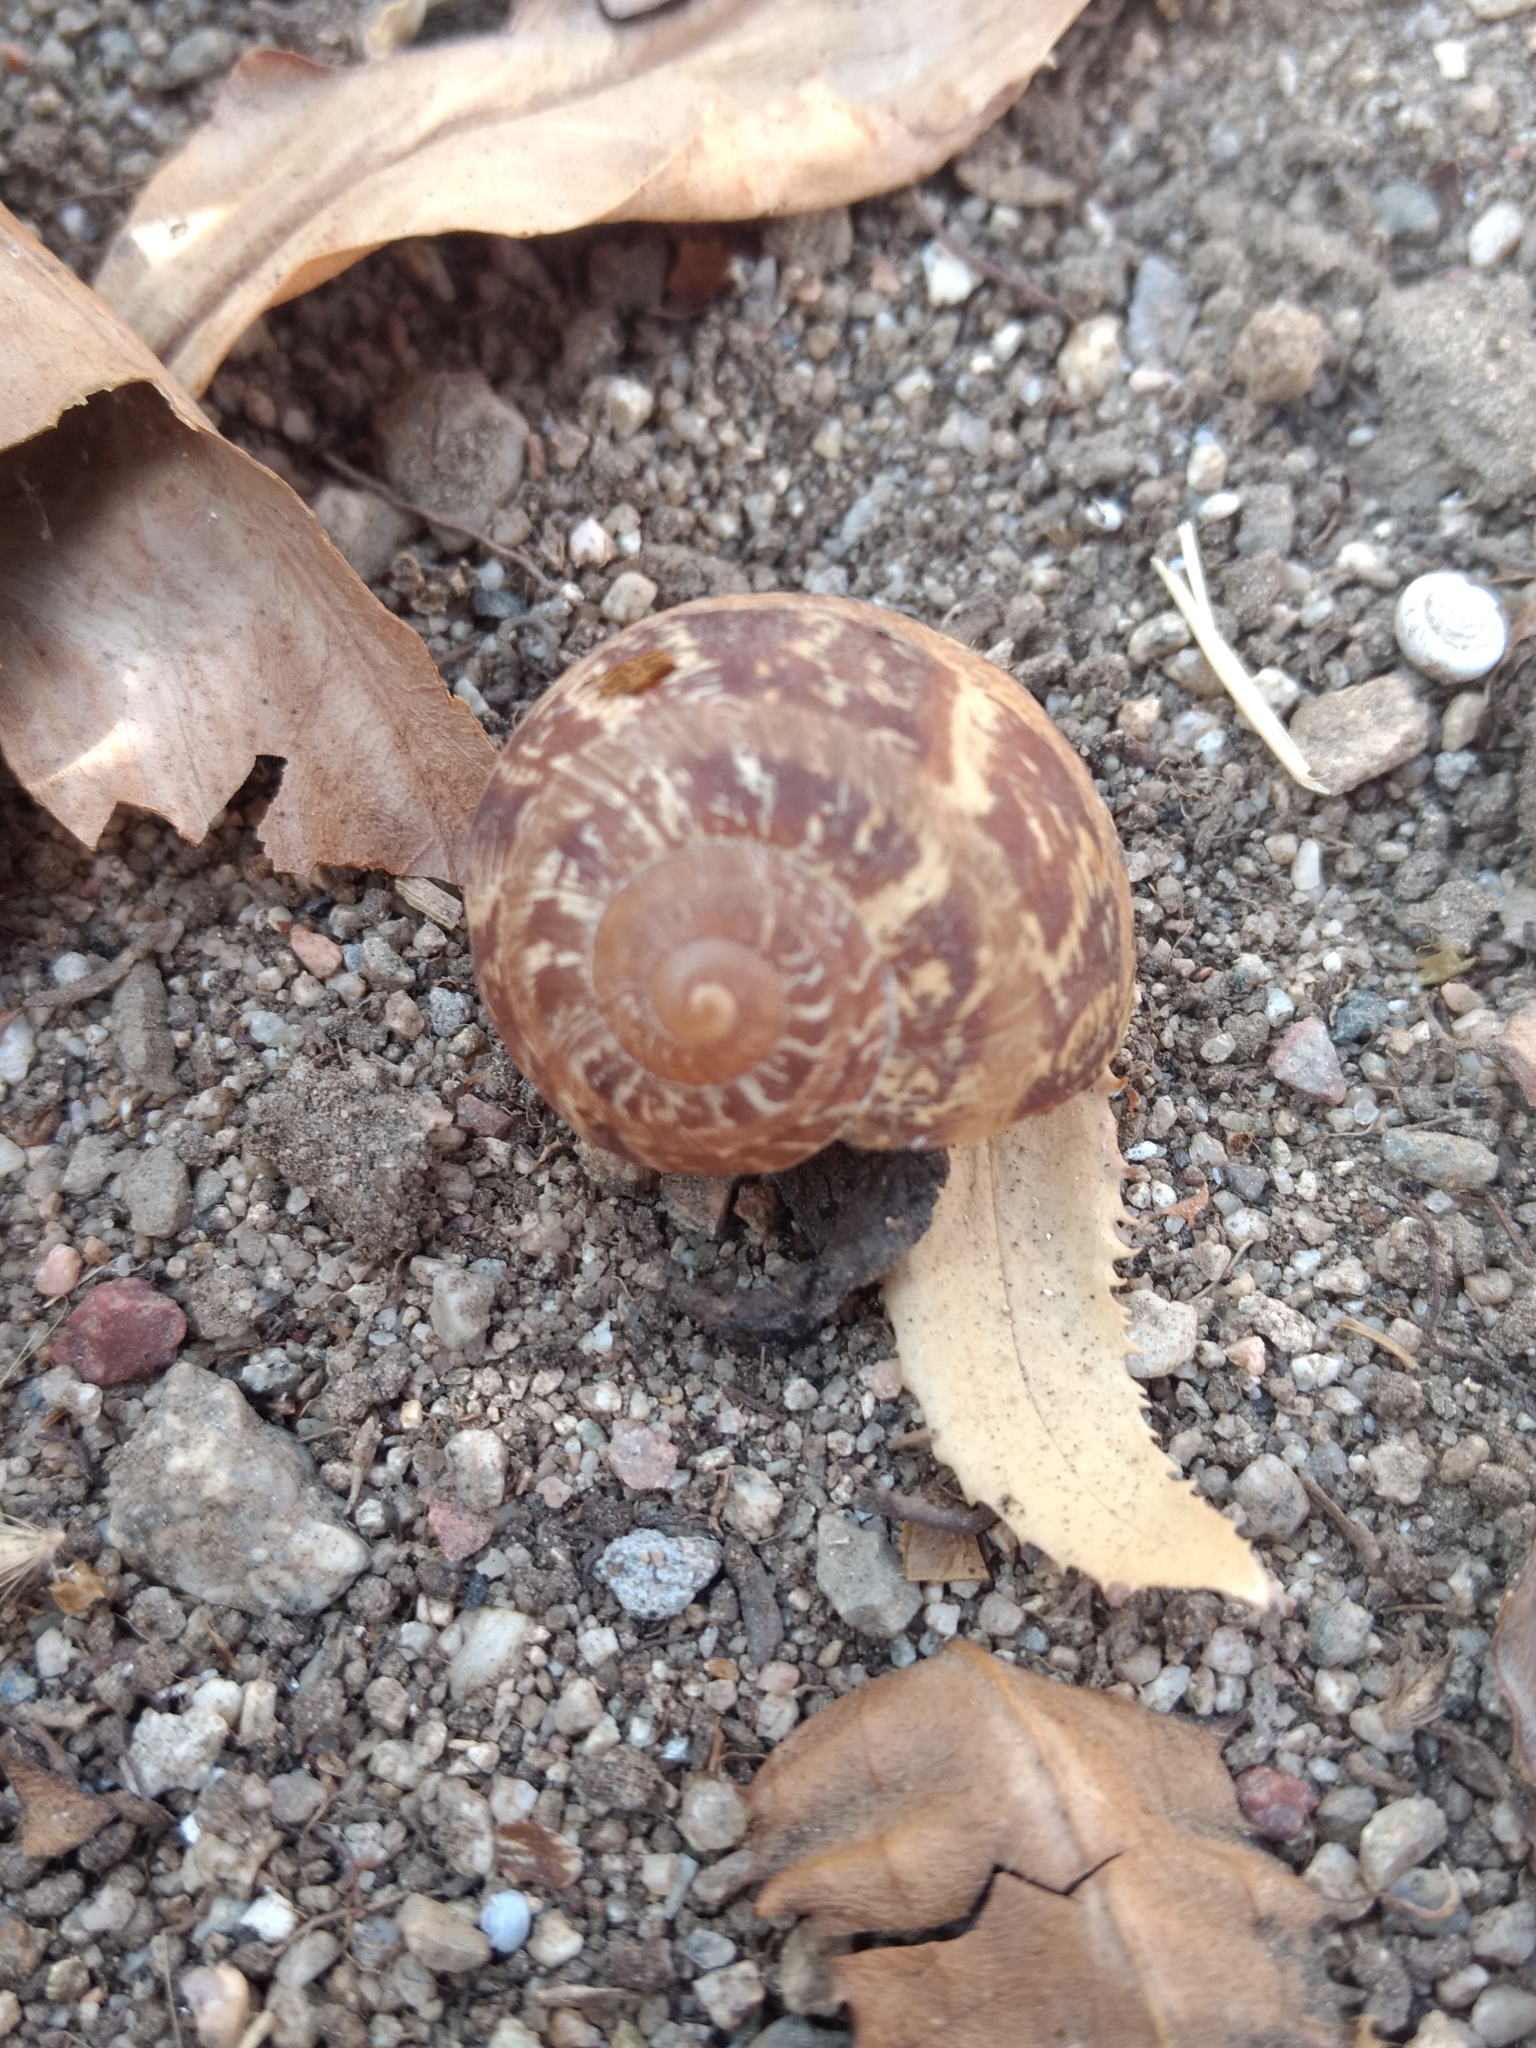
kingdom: Animalia
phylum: Mollusca
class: Gastropoda
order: Stylommatophora
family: Helicidae
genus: Cornu
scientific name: Cornu aspersum
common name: Brown garden snail
